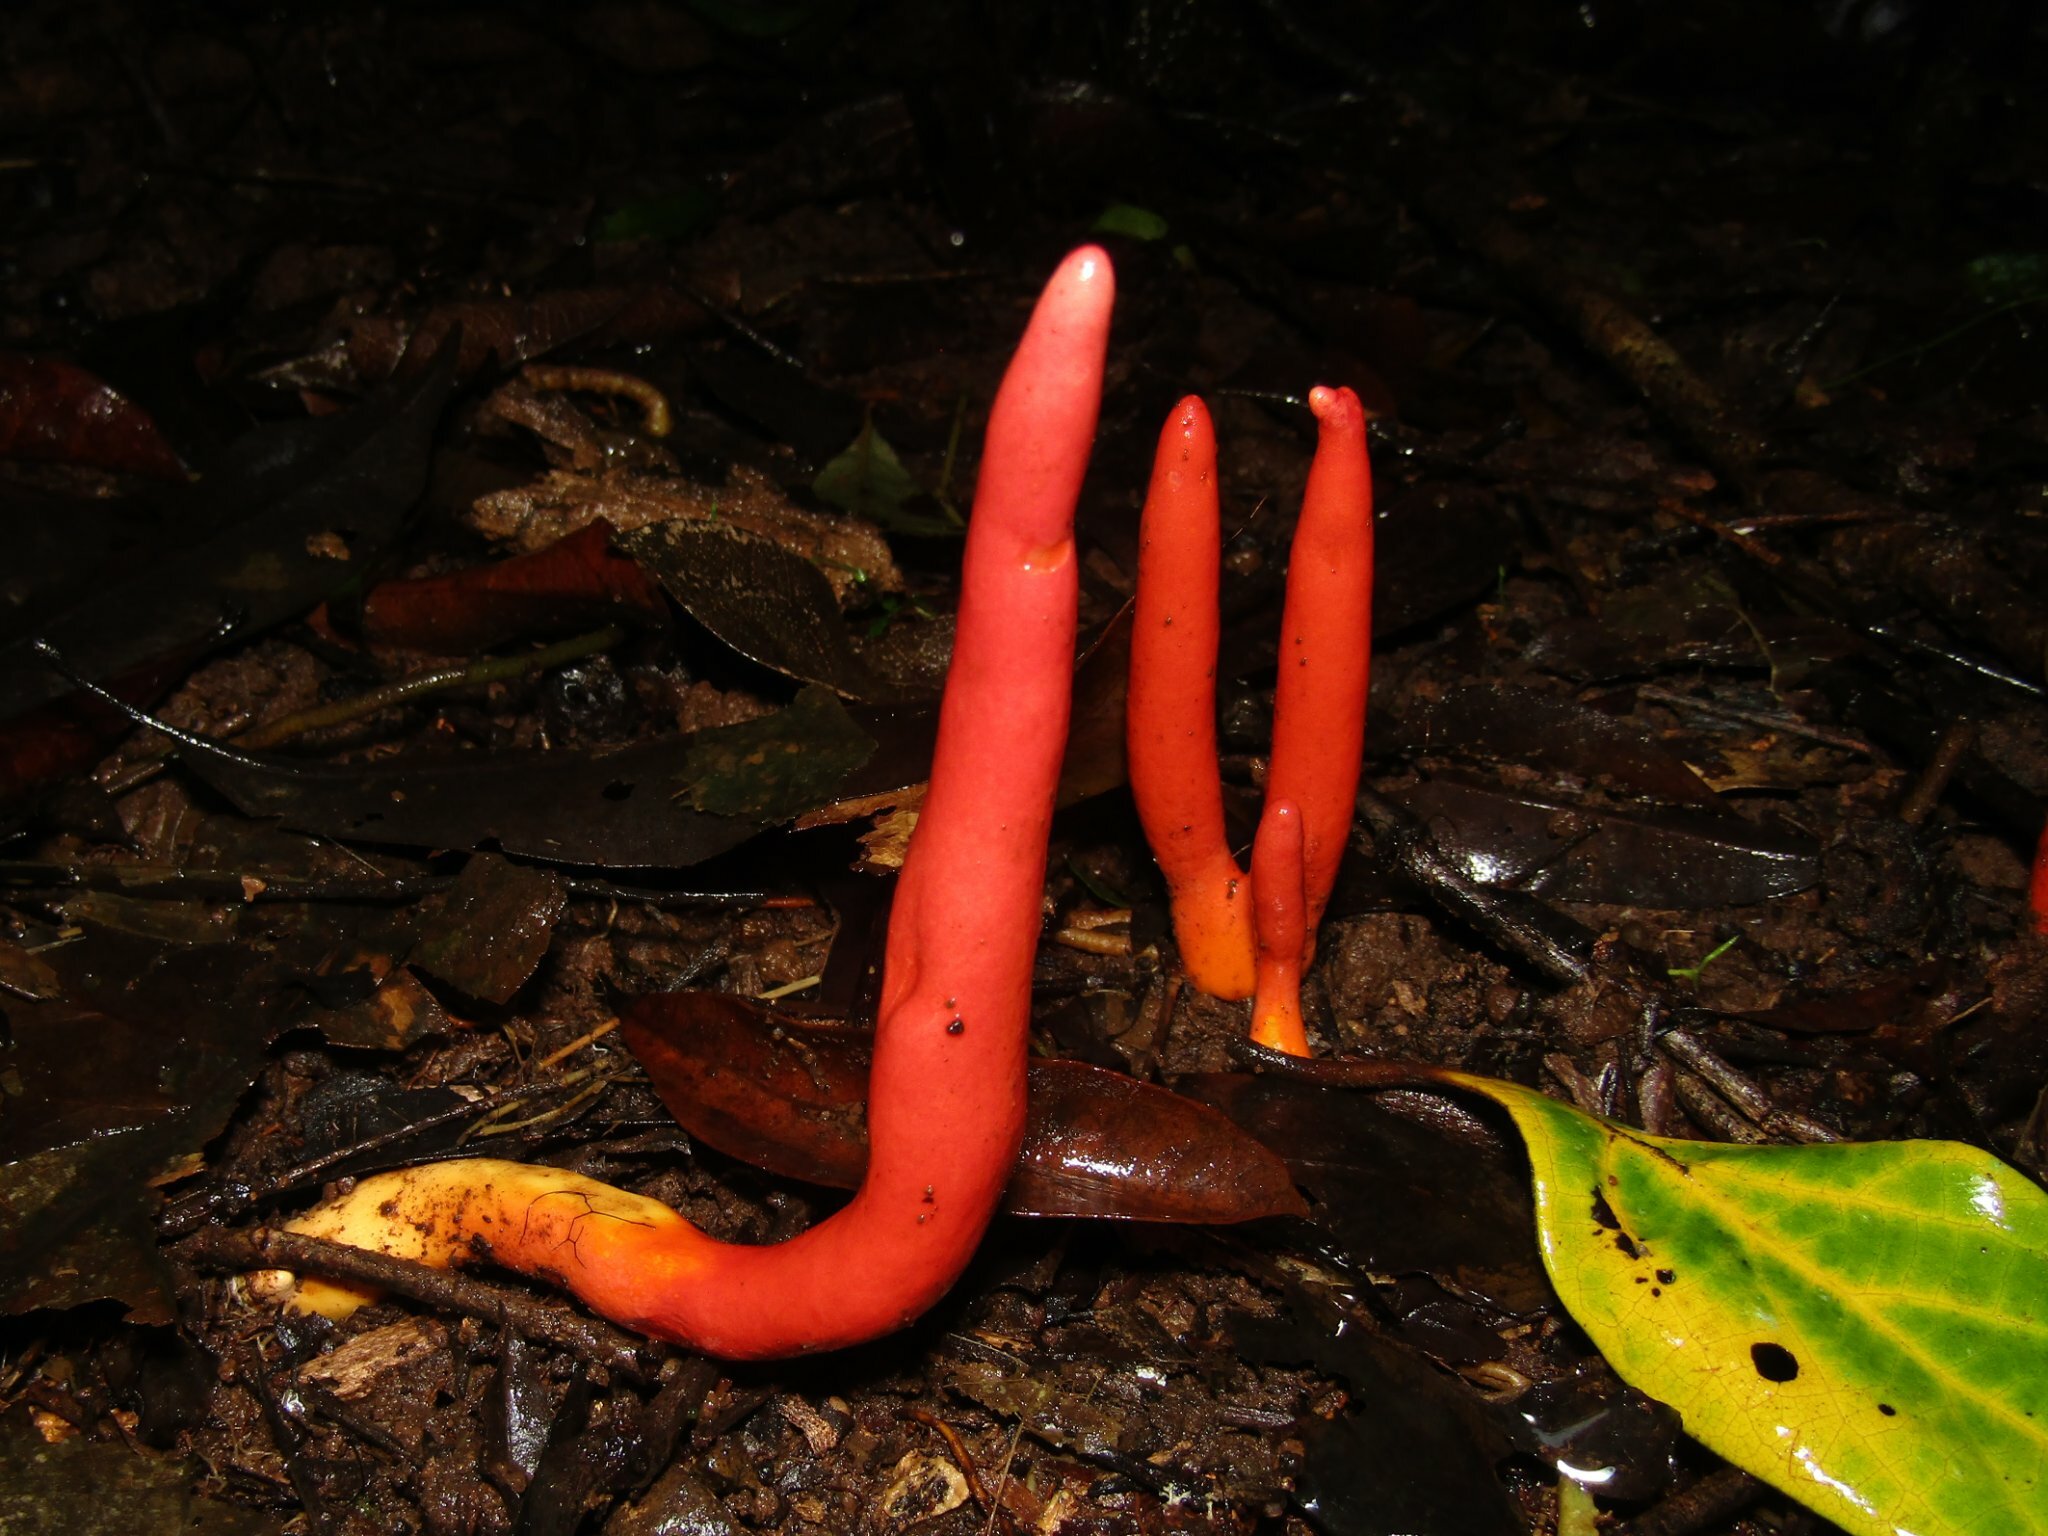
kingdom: Fungi
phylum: Ascomycota
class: Sordariomycetes
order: Hypocreales
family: Hypocreaceae
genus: Trichoderma
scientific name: Trichoderma cornu-damae
